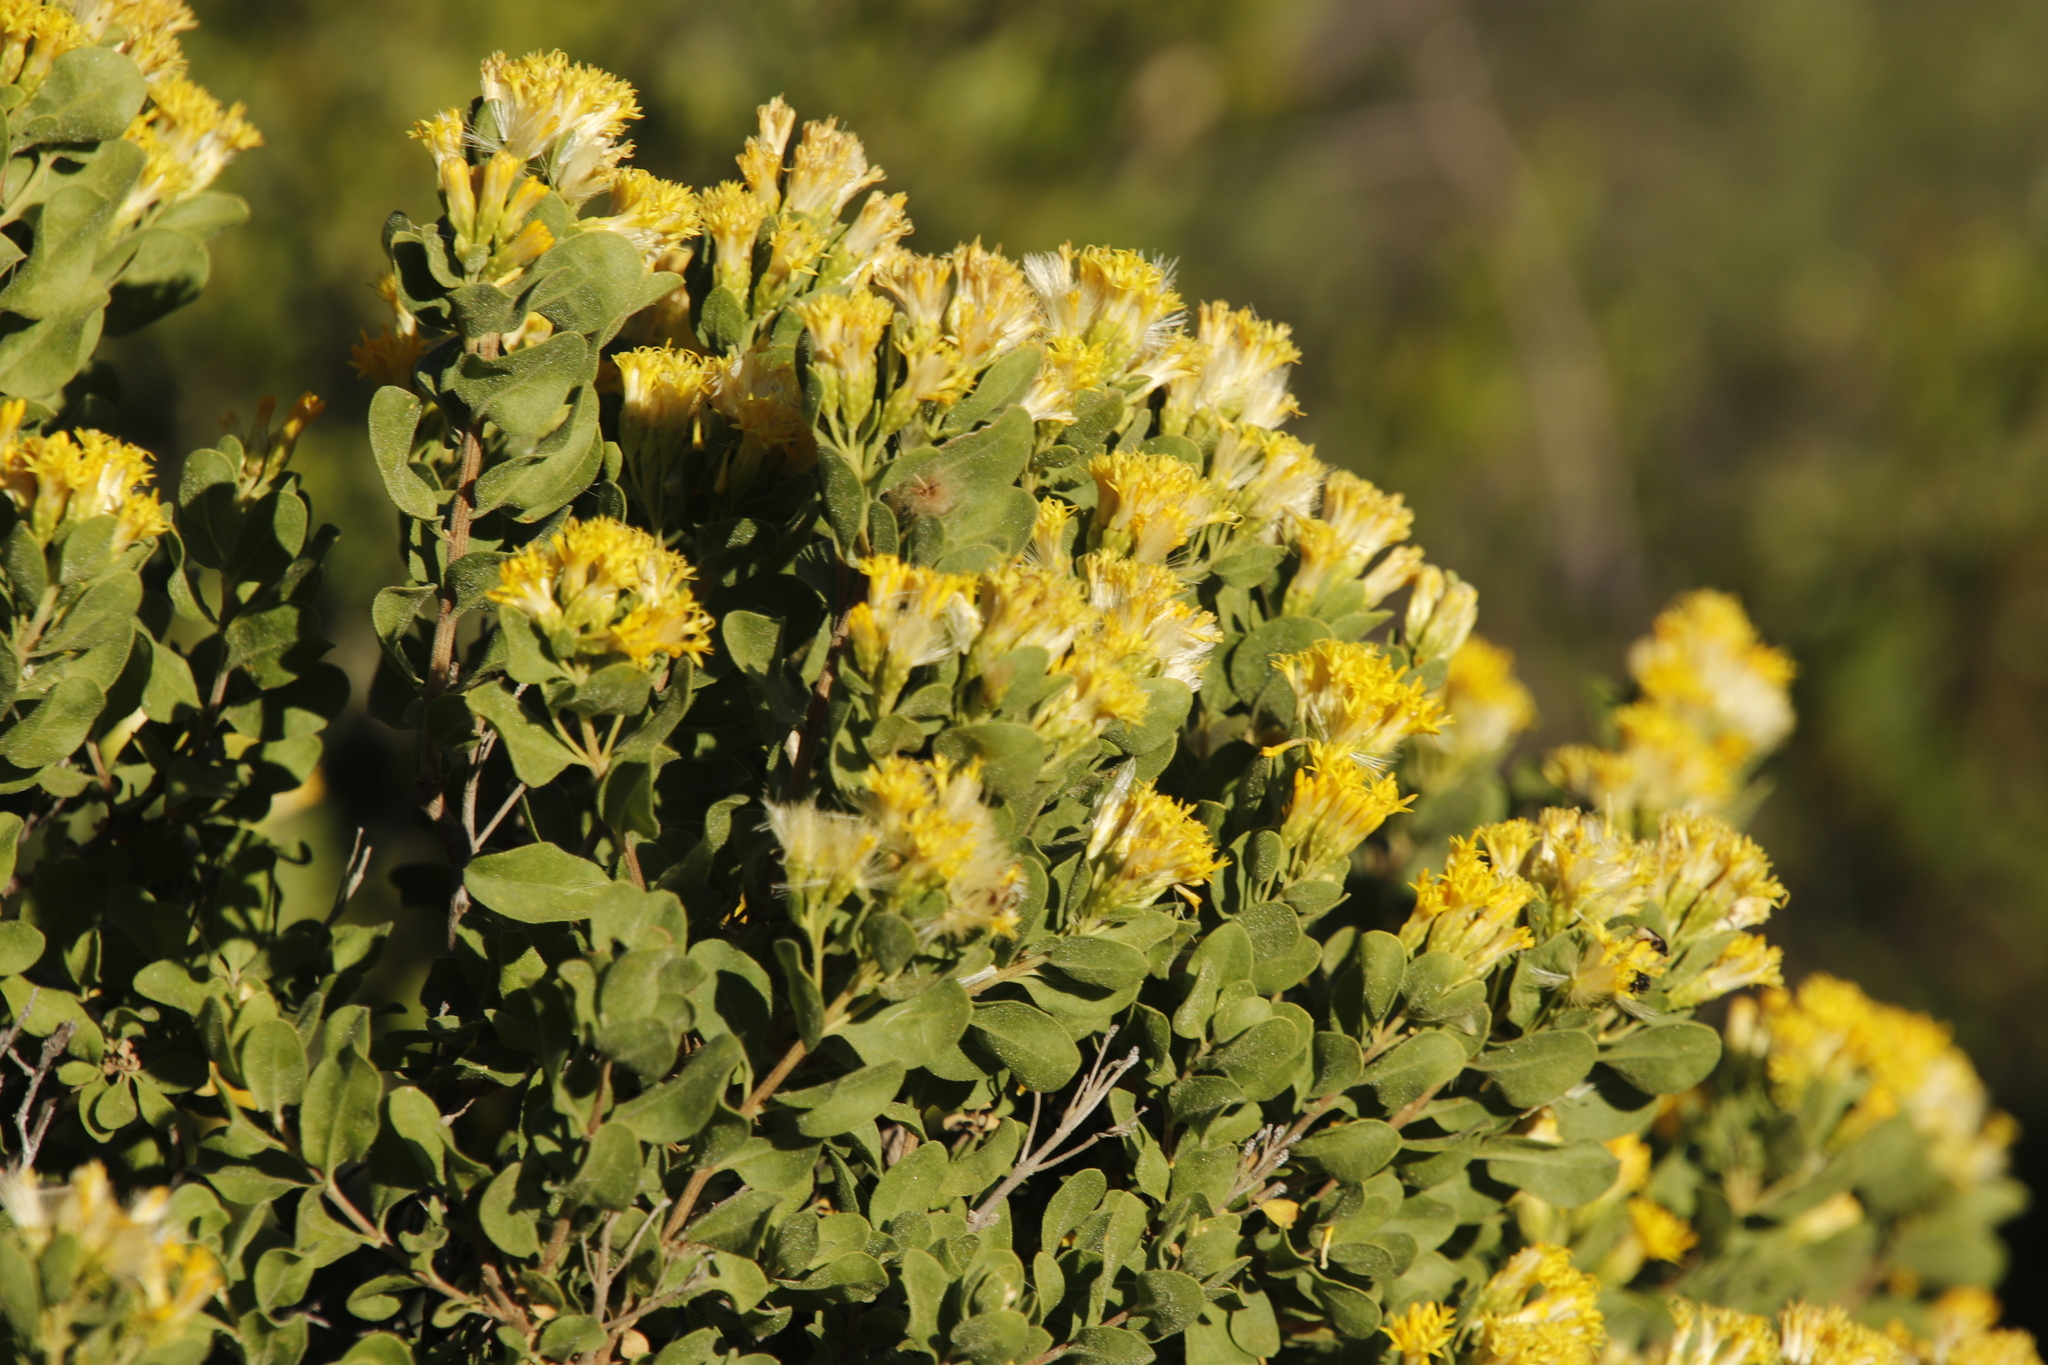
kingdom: Plantae
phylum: Tracheophyta
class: Magnoliopsida
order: Asterales
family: Asteraceae
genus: Pteronia
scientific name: Pteronia divaricata
